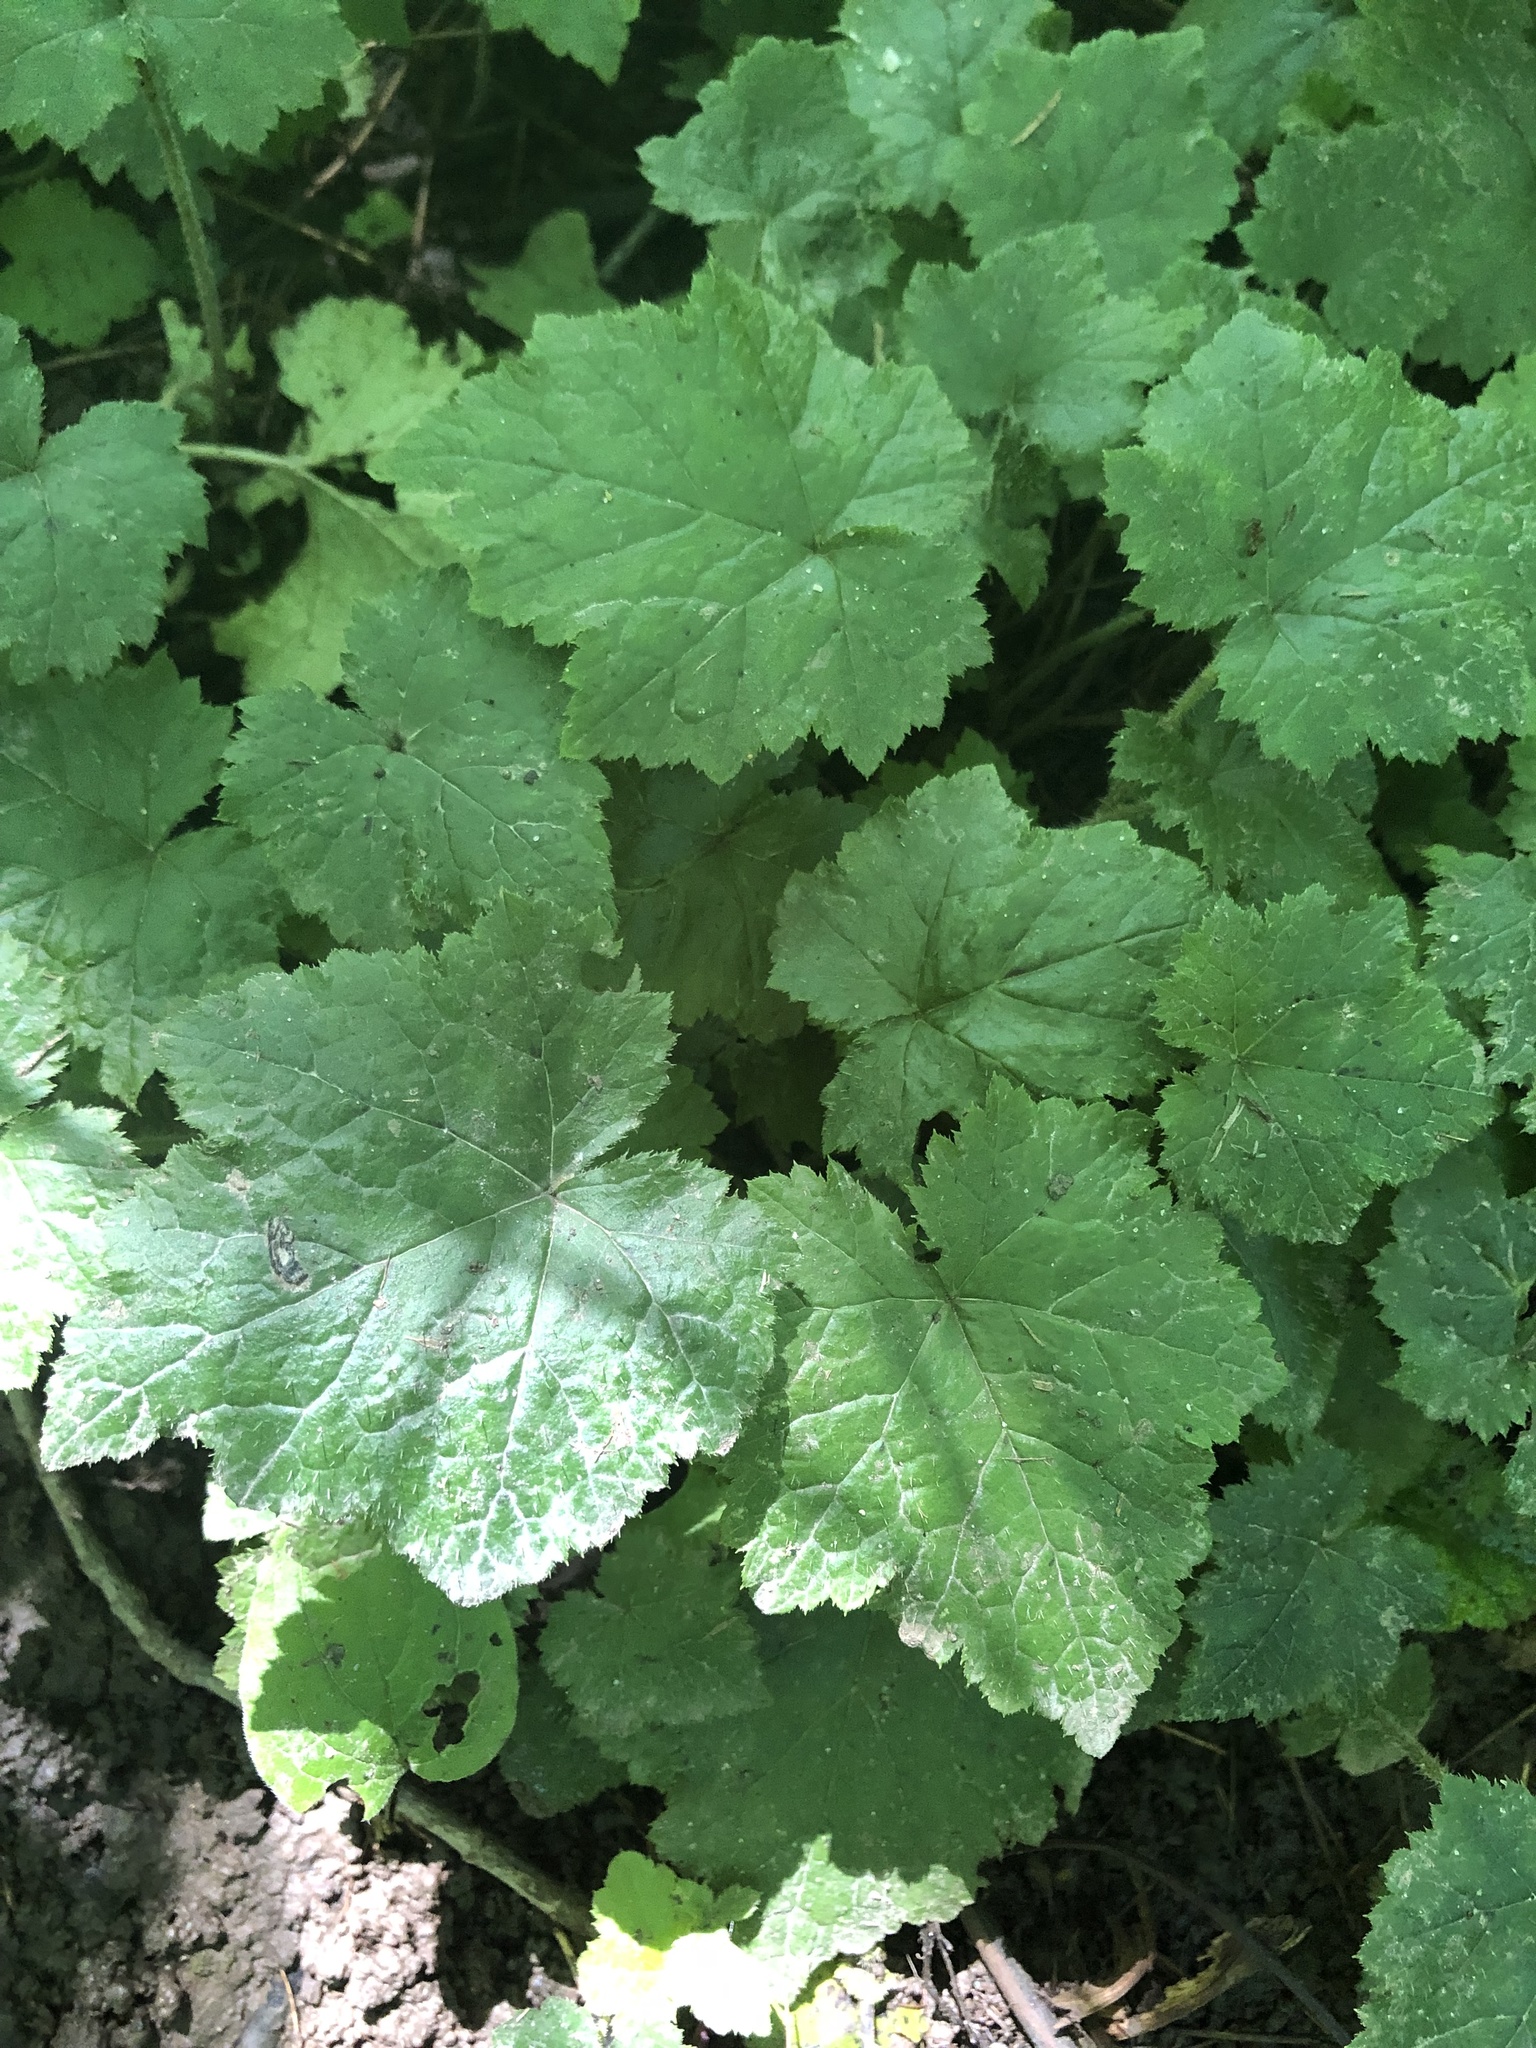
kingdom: Plantae
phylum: Tracheophyta
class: Magnoliopsida
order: Saxifragales
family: Saxifragaceae
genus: Tiarella
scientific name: Tiarella stolonifera
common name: Stoloniferous foamflower
